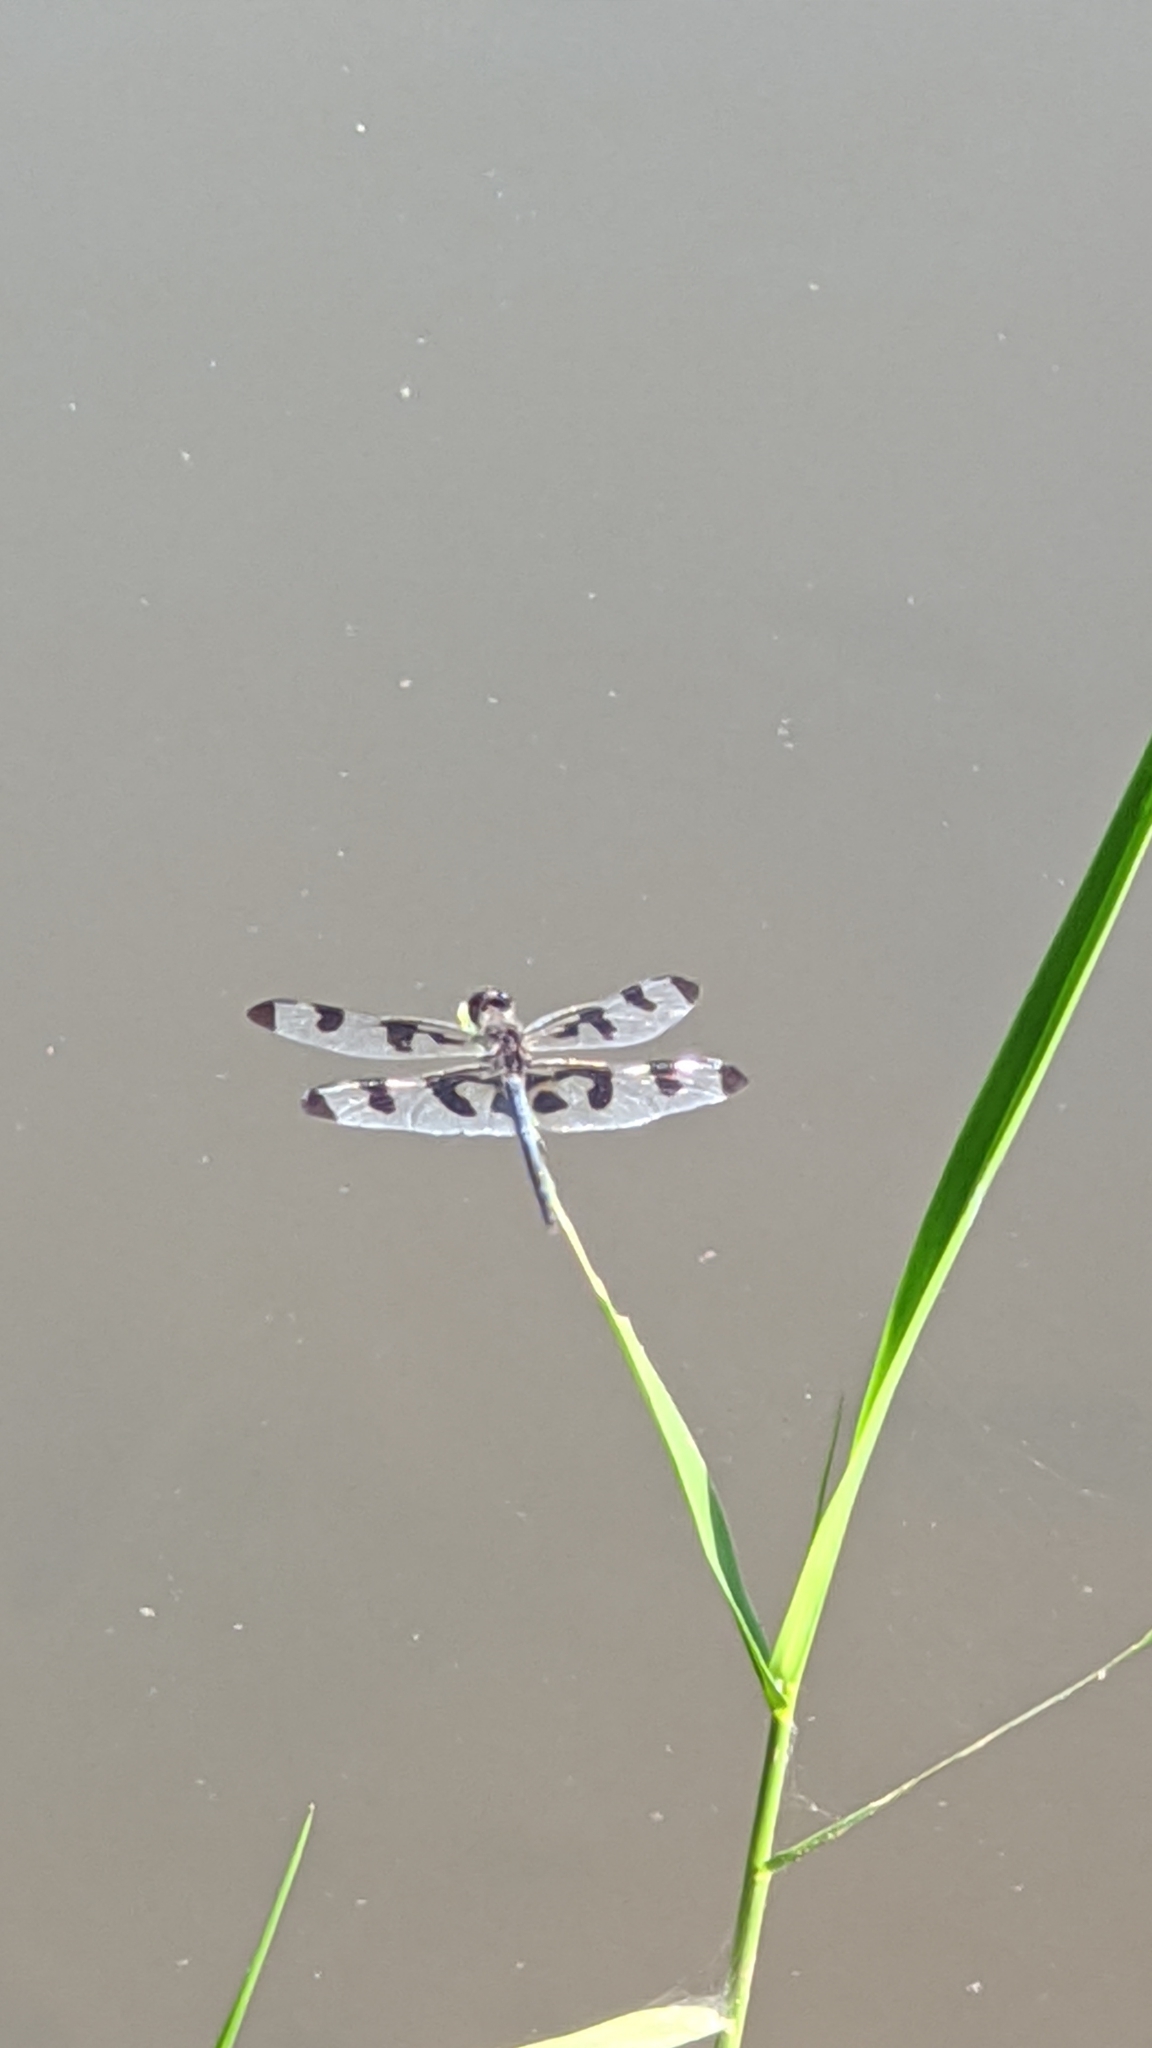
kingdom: Animalia
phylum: Arthropoda
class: Insecta
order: Odonata
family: Libellulidae
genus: Celithemis
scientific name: Celithemis fasciata
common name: Banded pennant
